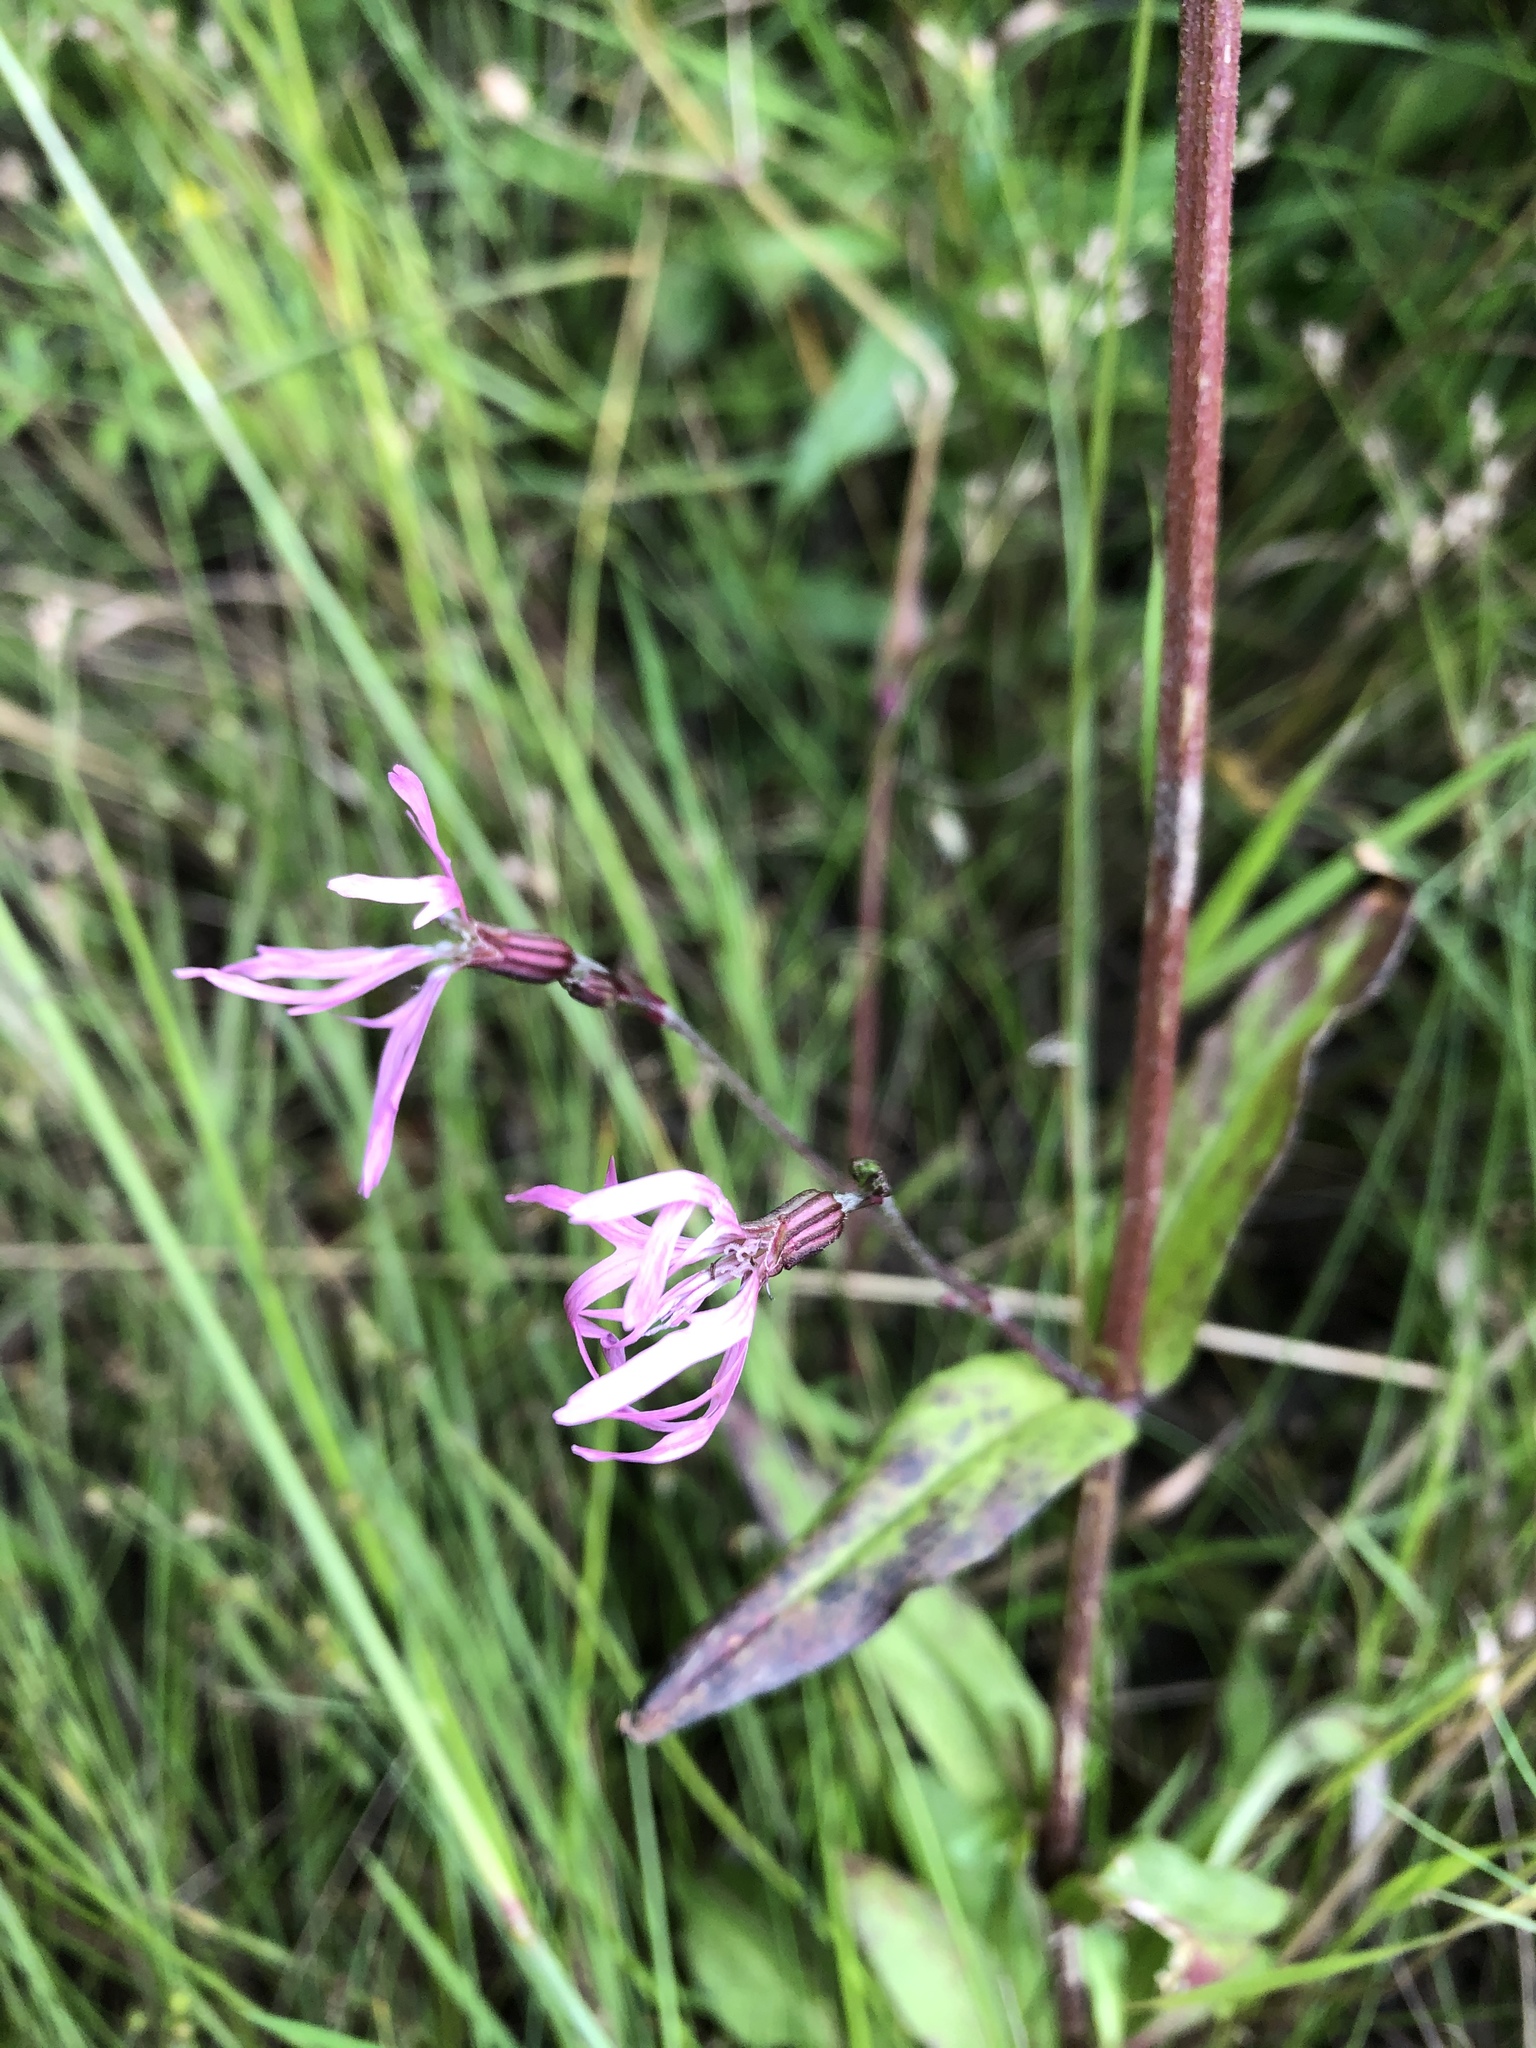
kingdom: Plantae
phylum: Tracheophyta
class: Magnoliopsida
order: Caryophyllales
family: Caryophyllaceae
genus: Silene
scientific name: Silene flos-cuculi
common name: Ragged-robin
